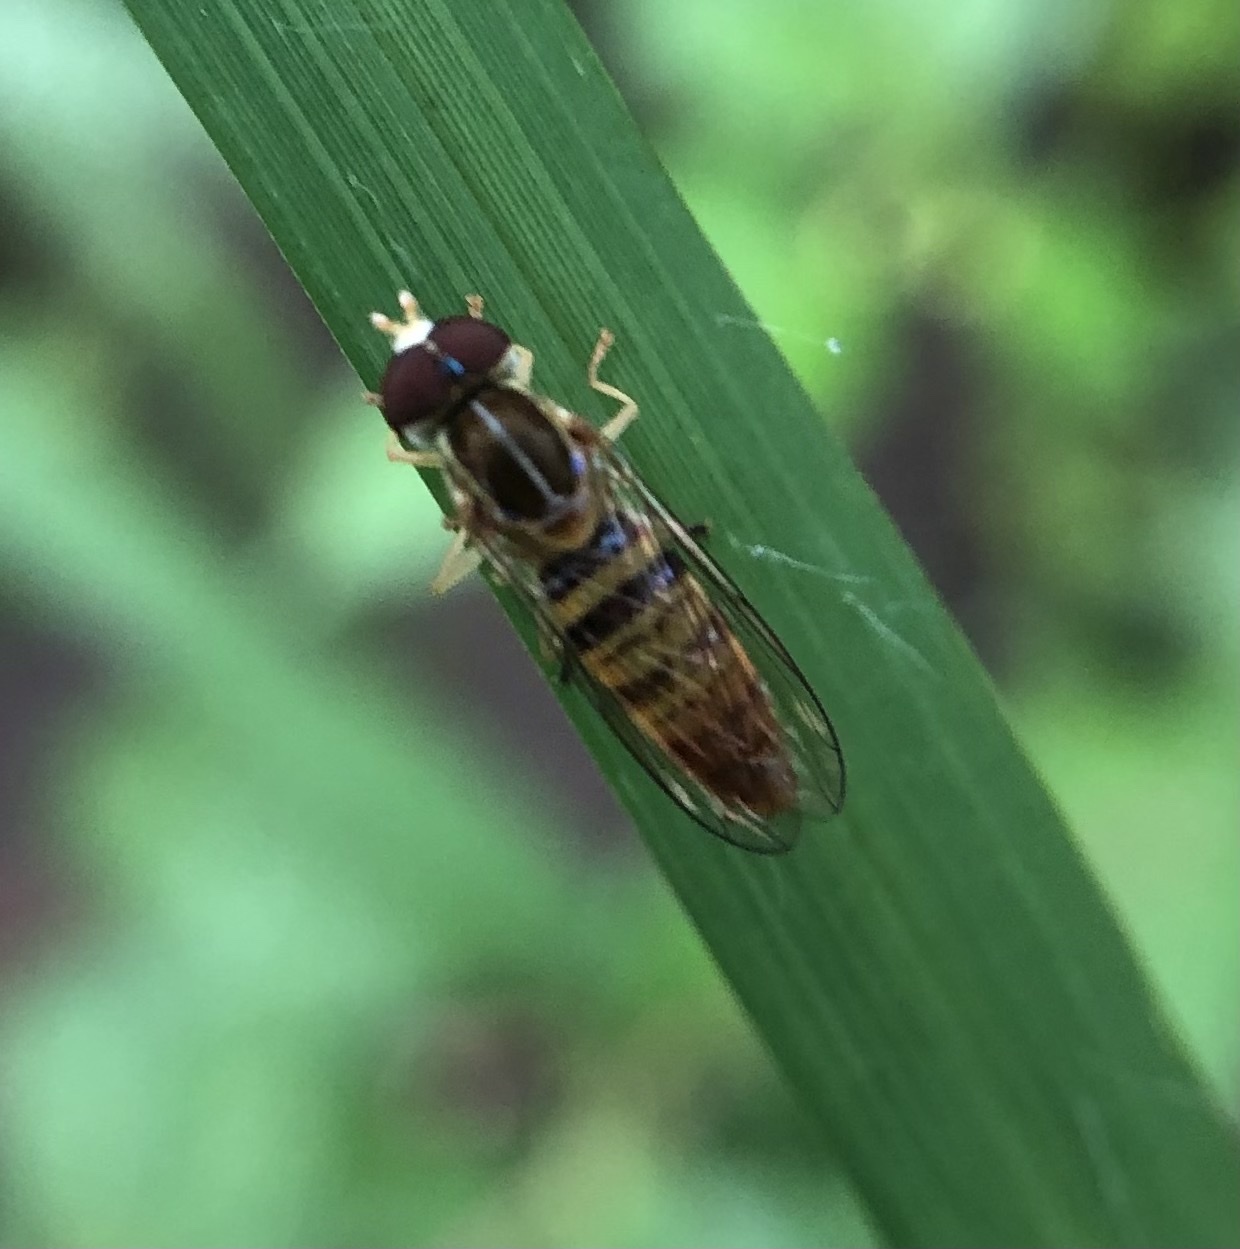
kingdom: Animalia
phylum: Arthropoda
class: Insecta
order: Diptera
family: Syrphidae
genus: Toxomerus
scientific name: Toxomerus politus
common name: Maize calligrapher
